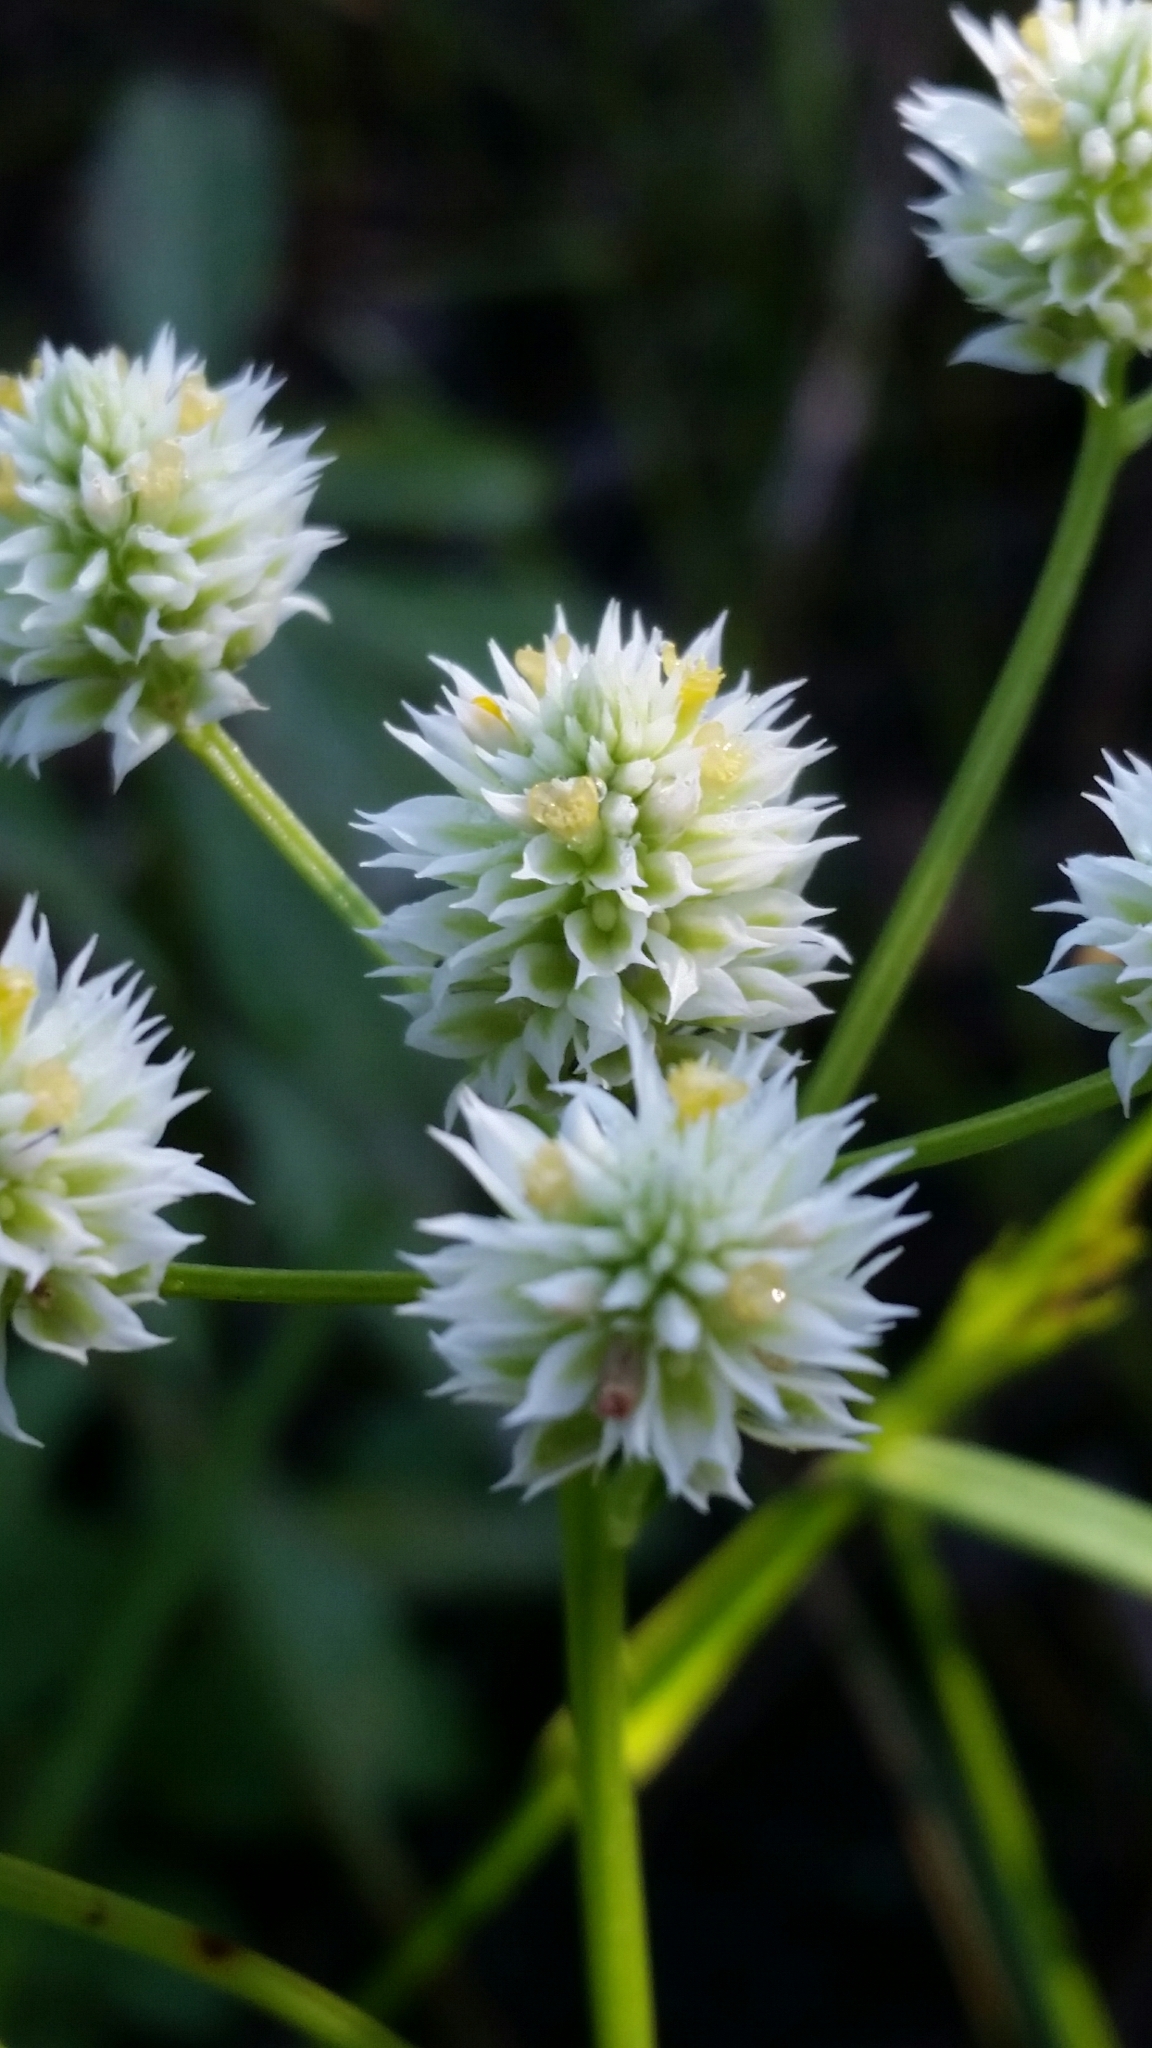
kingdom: Plantae
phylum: Tracheophyta
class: Magnoliopsida
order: Fabales
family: Polygalaceae
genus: Polygala
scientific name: Polygala baldwinii
